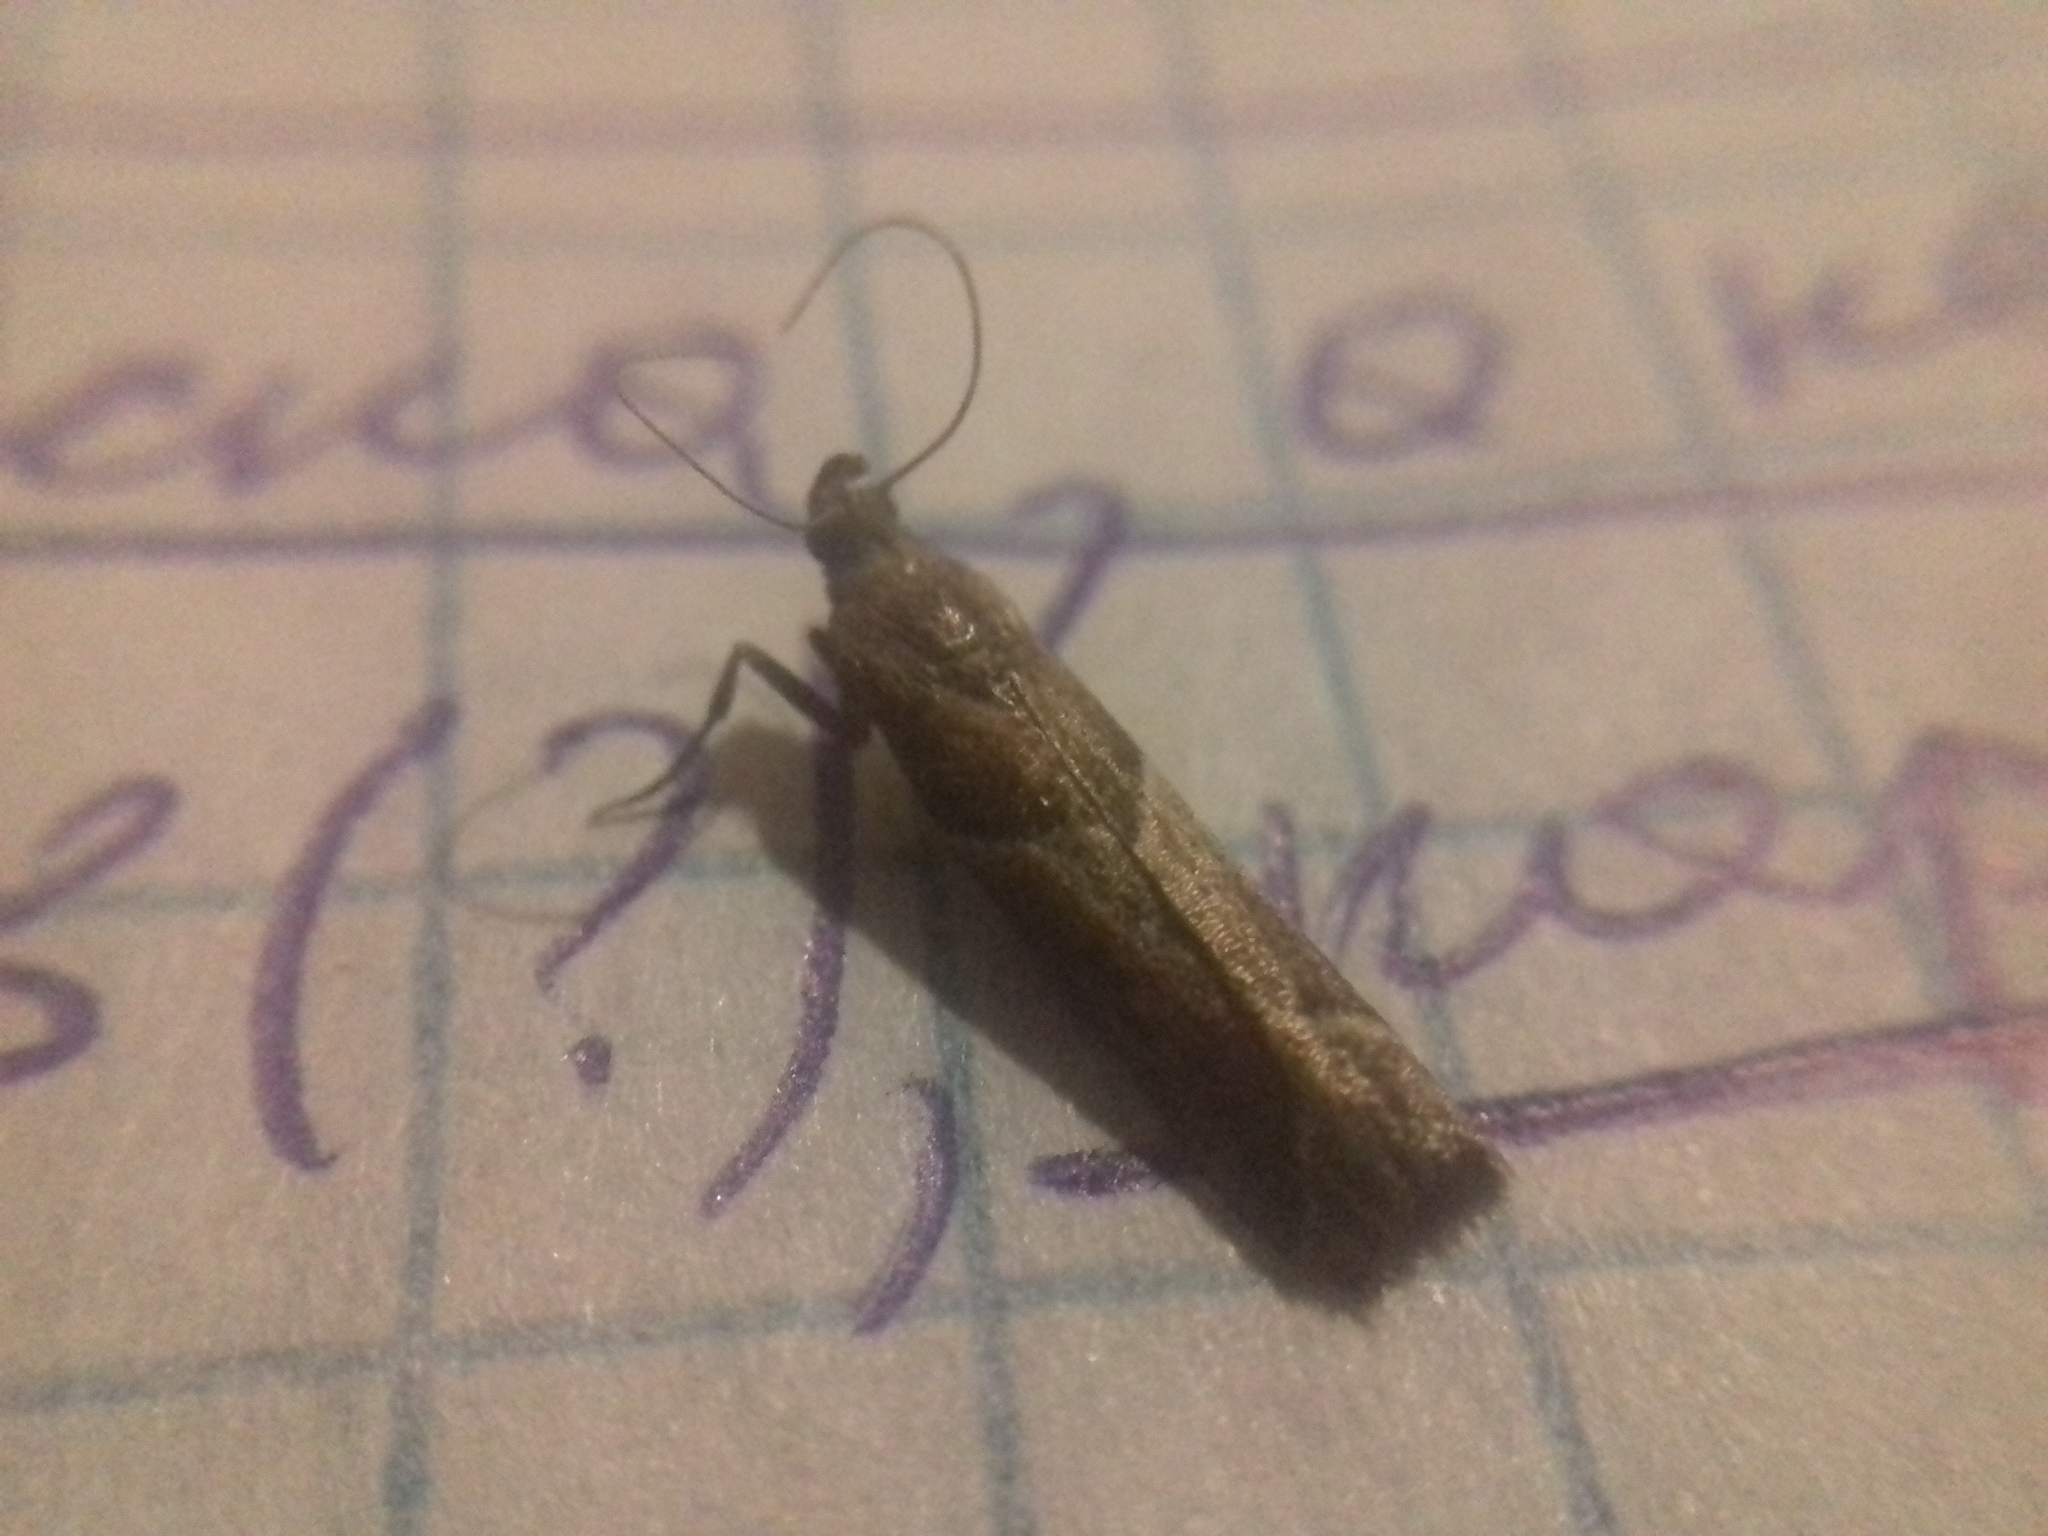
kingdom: Animalia
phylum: Arthropoda
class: Insecta
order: Lepidoptera
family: Pyralidae
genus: Nyctegretis
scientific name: Nyctegretis lineana
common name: Agate knot-horn
